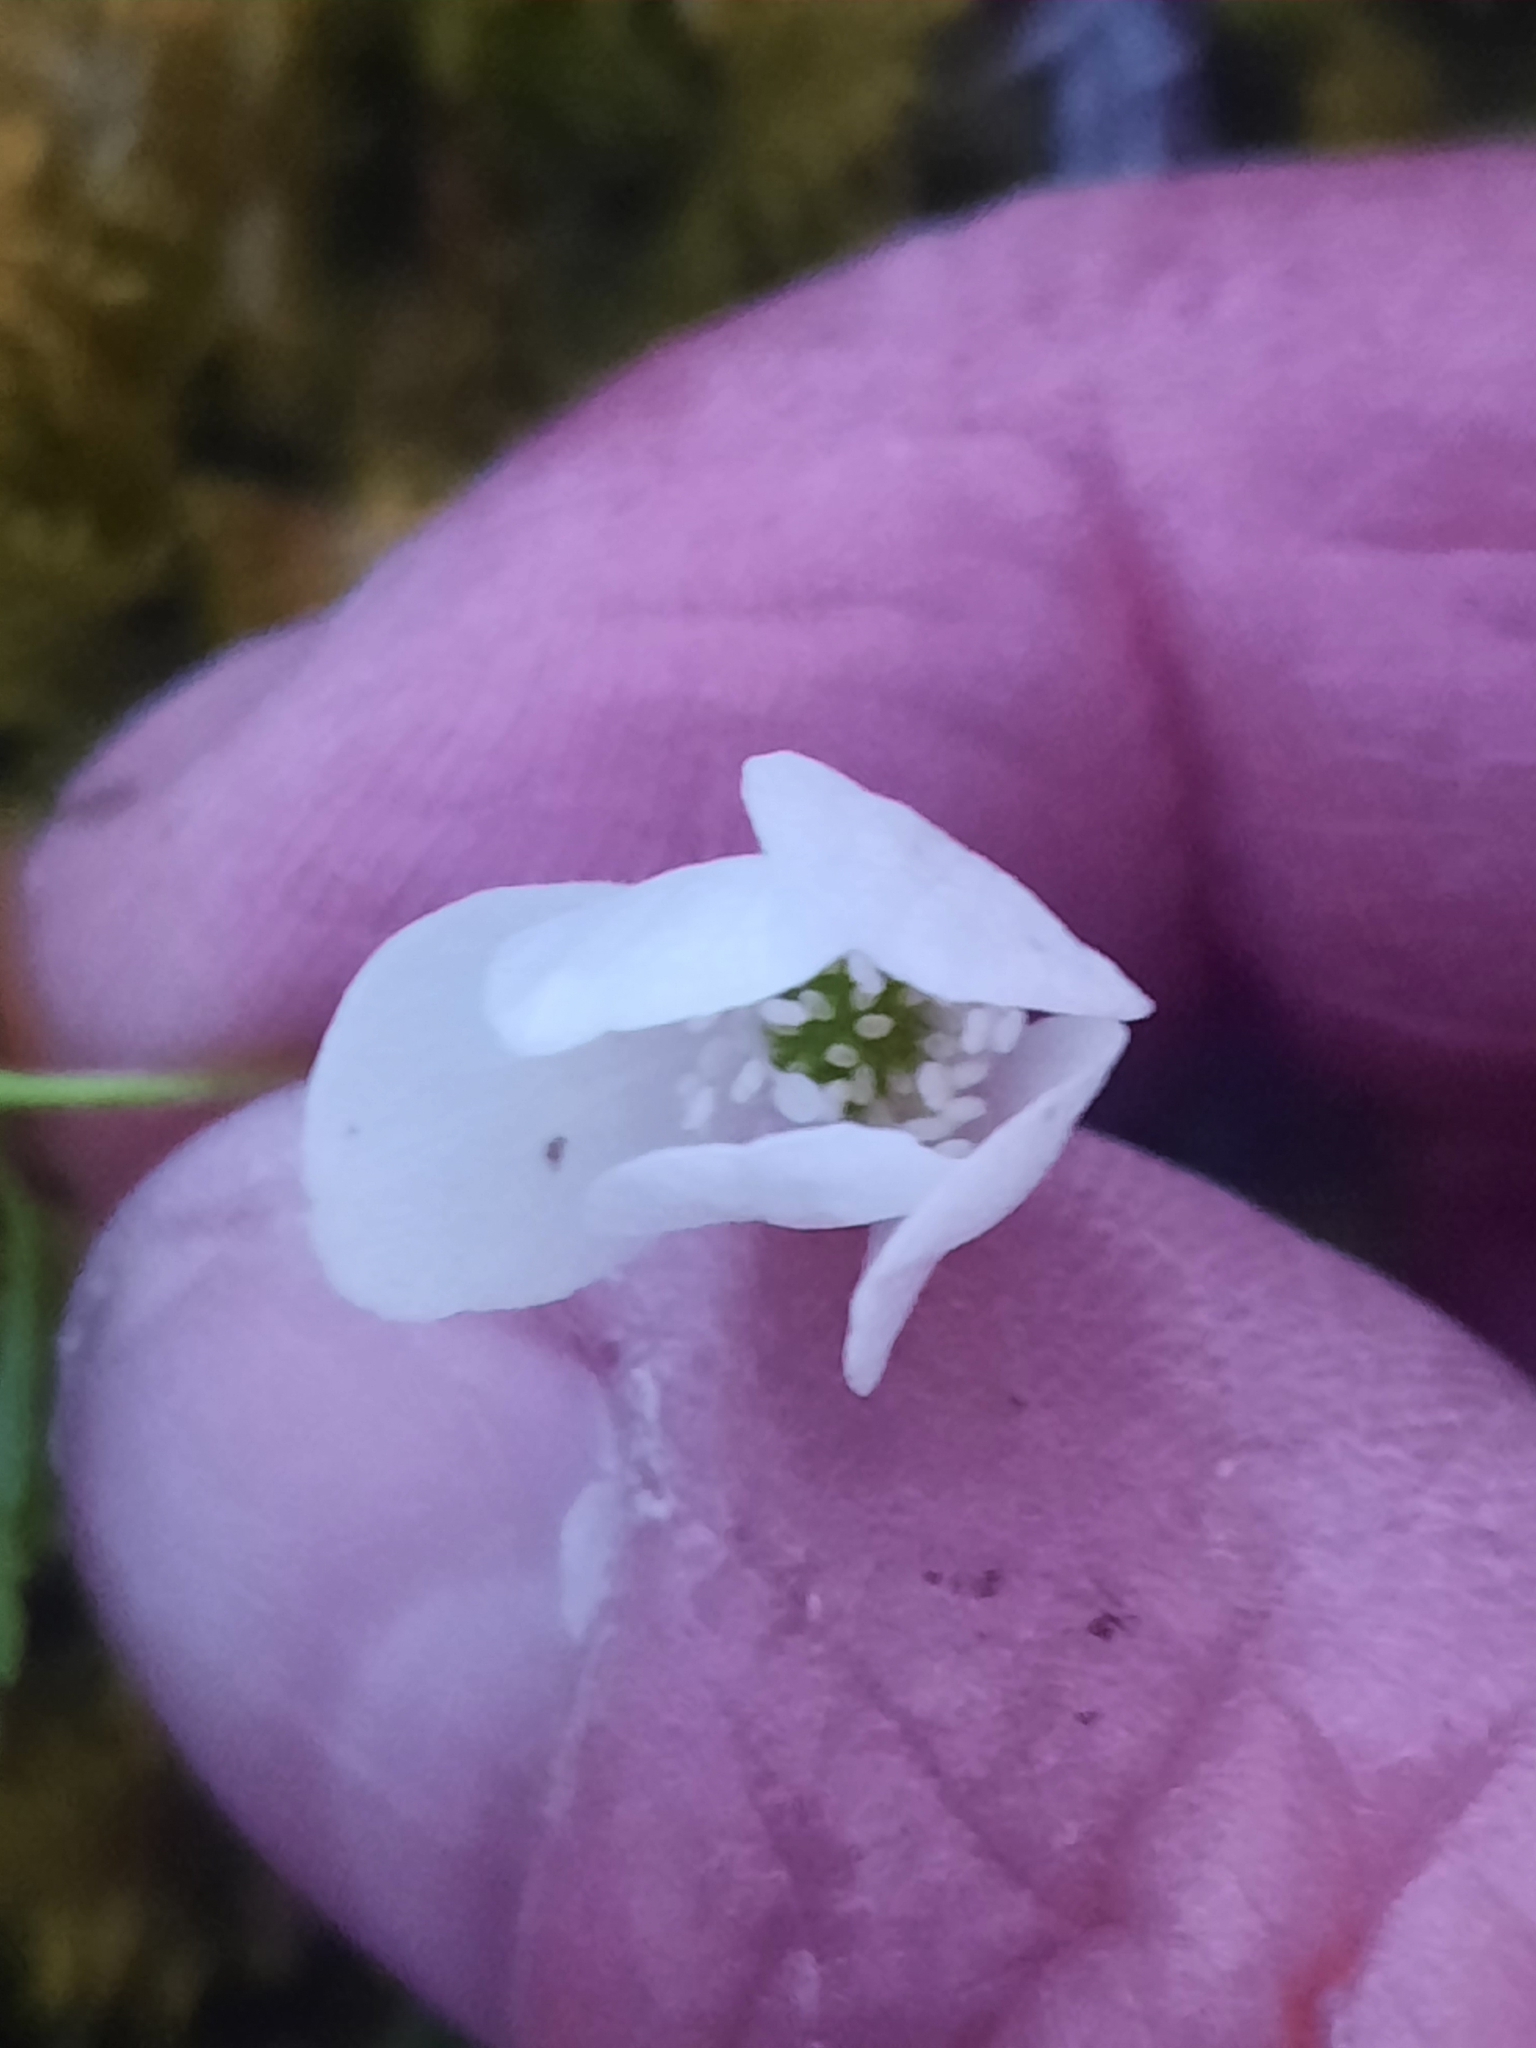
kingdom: Plantae
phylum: Tracheophyta
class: Magnoliopsida
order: Ranunculales
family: Ranunculaceae
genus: Anemone
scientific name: Anemone quinquefolia
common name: Wood anemone
